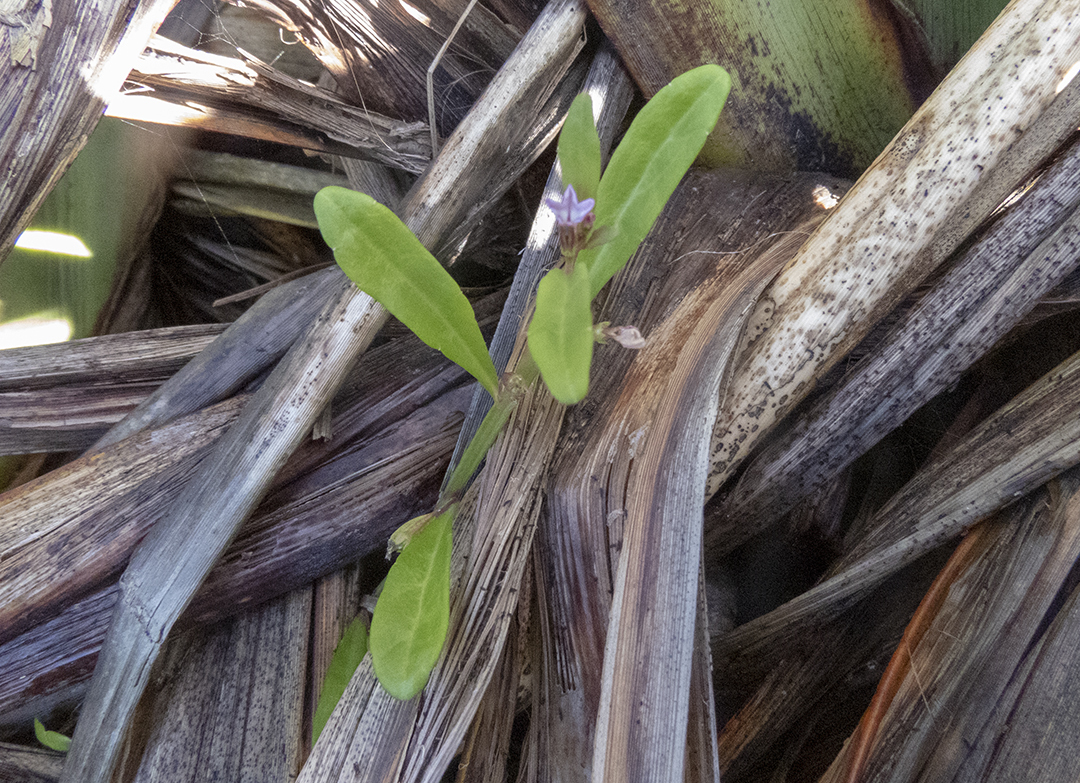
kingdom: Plantae
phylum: Tracheophyta
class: Magnoliopsida
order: Asterales
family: Campanulaceae
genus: Lobelia
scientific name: Lobelia anceps
